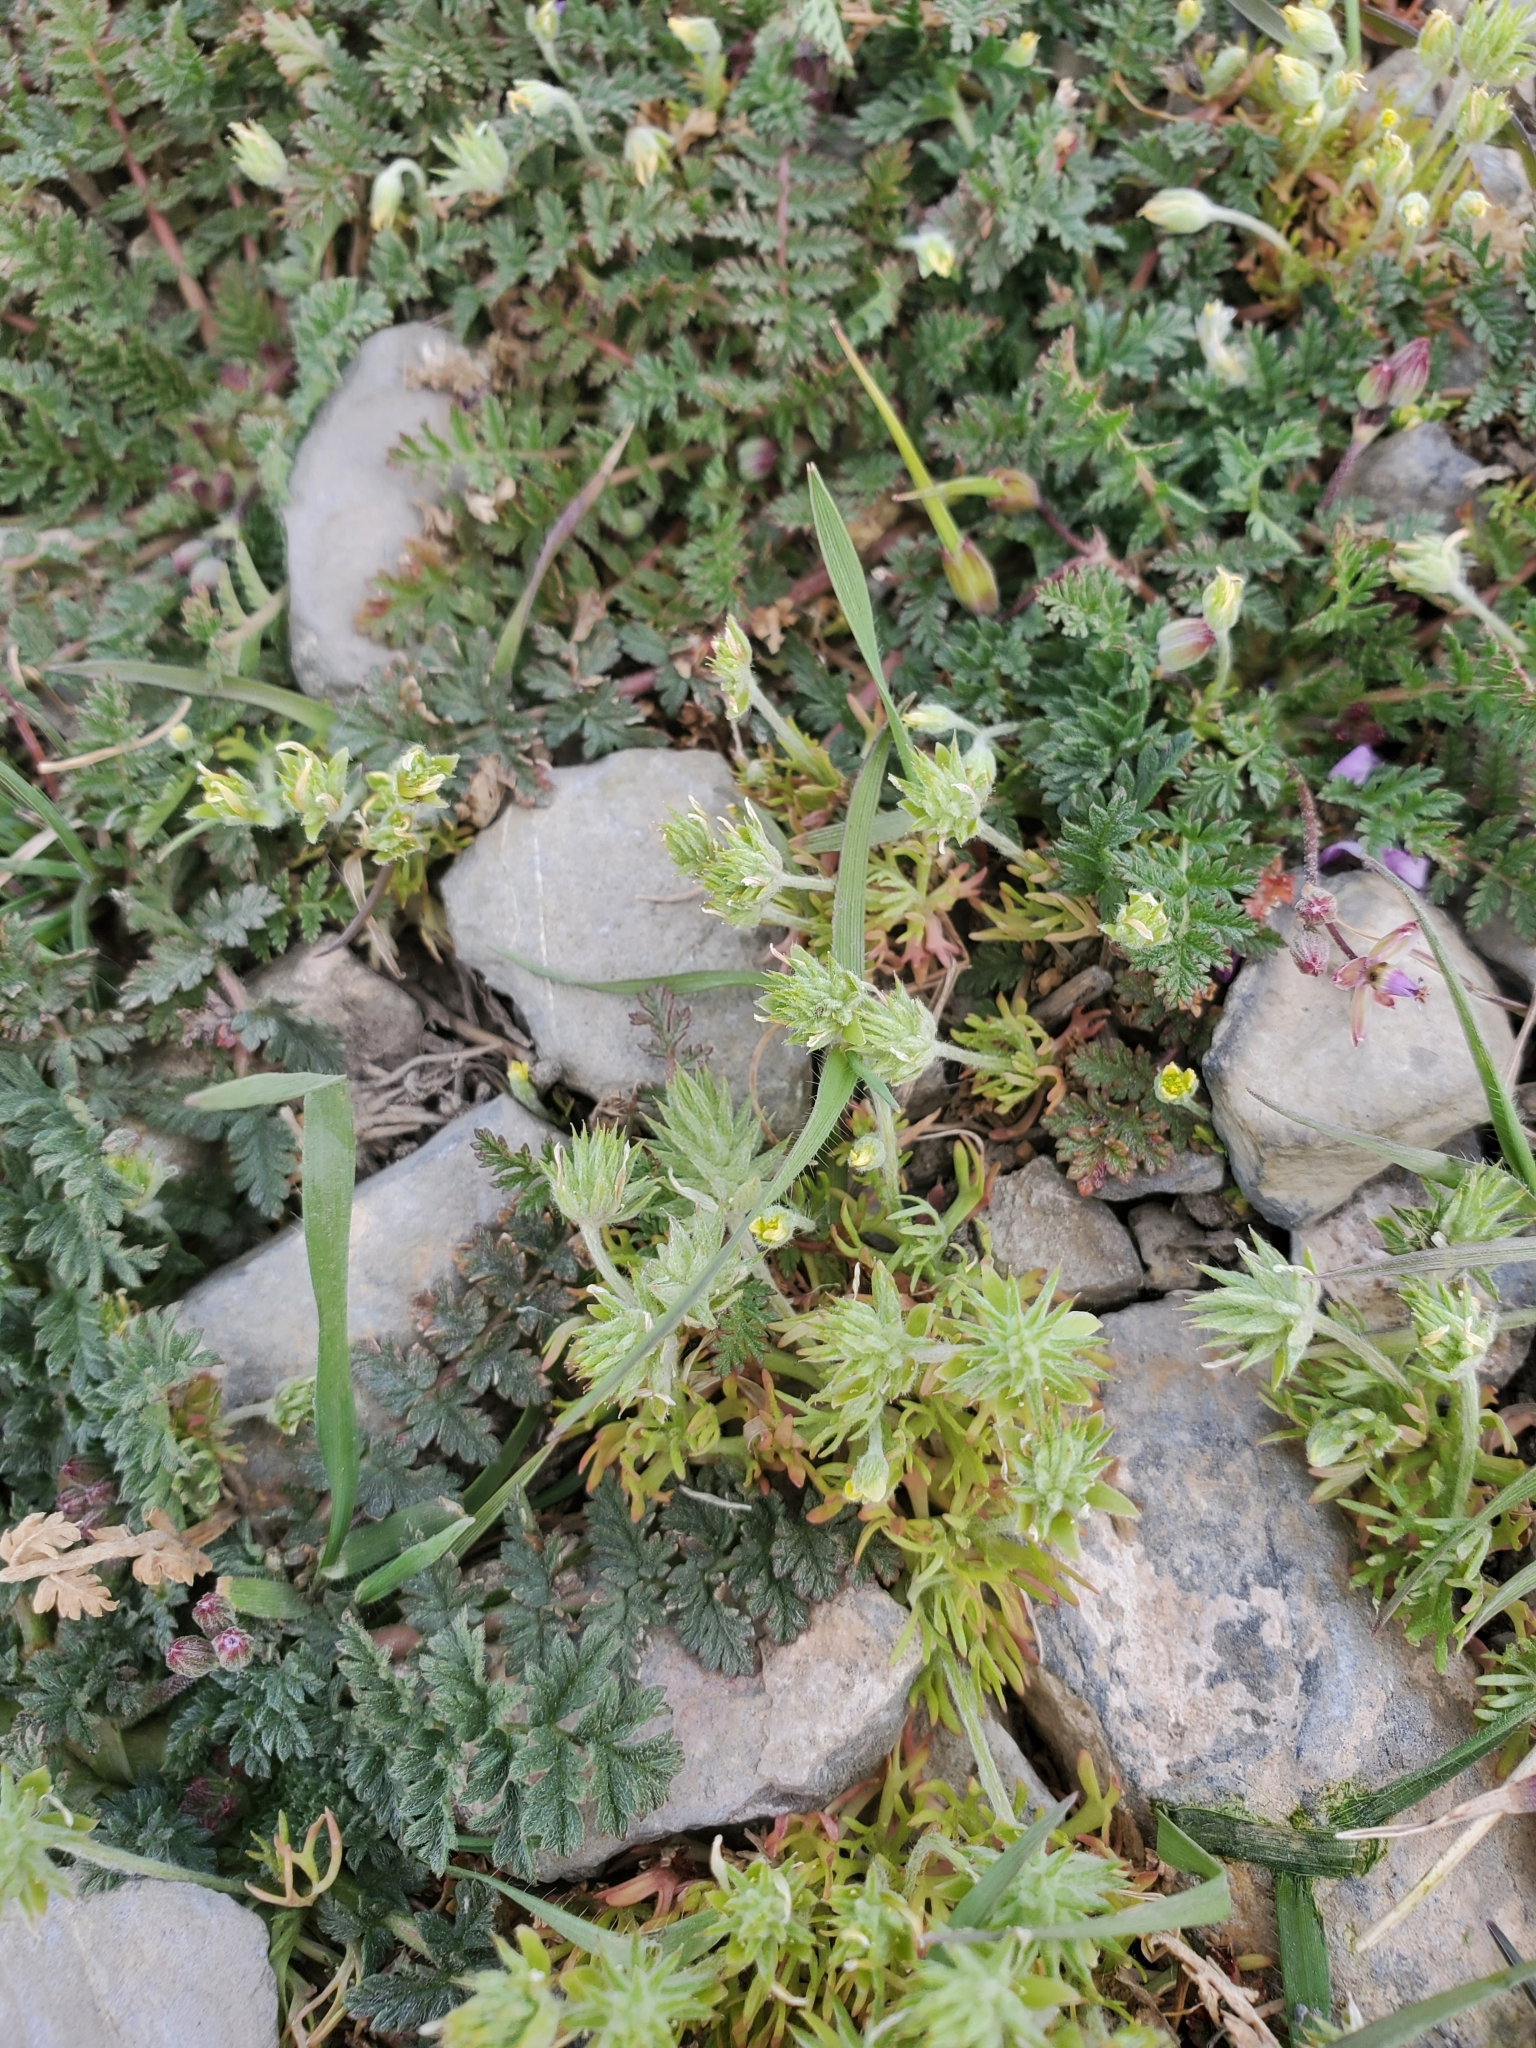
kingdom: Plantae
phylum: Tracheophyta
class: Magnoliopsida
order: Ranunculales
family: Ranunculaceae
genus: Ceratocephala
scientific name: Ceratocephala orthoceras
